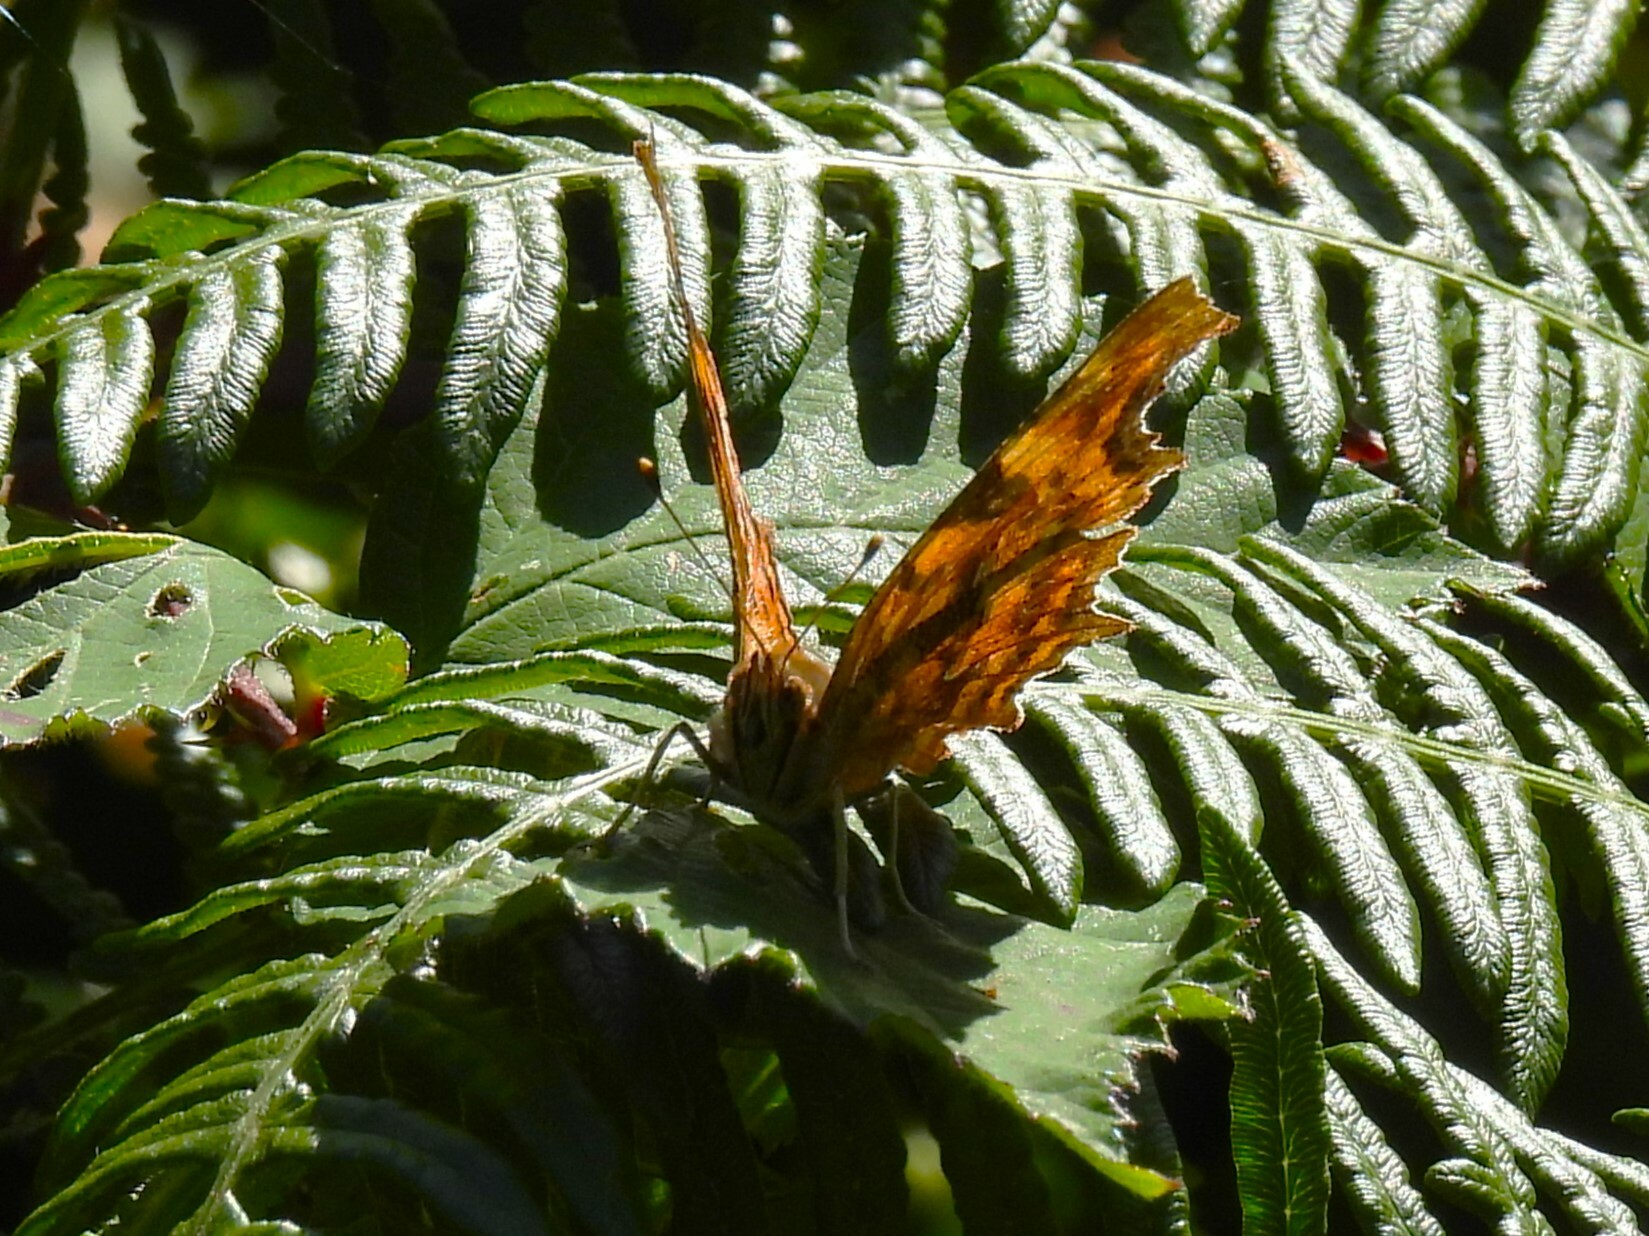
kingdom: Animalia
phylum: Arthropoda
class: Insecta
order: Lepidoptera
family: Nymphalidae
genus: Polygonia
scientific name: Polygonia c-album
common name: Comma
